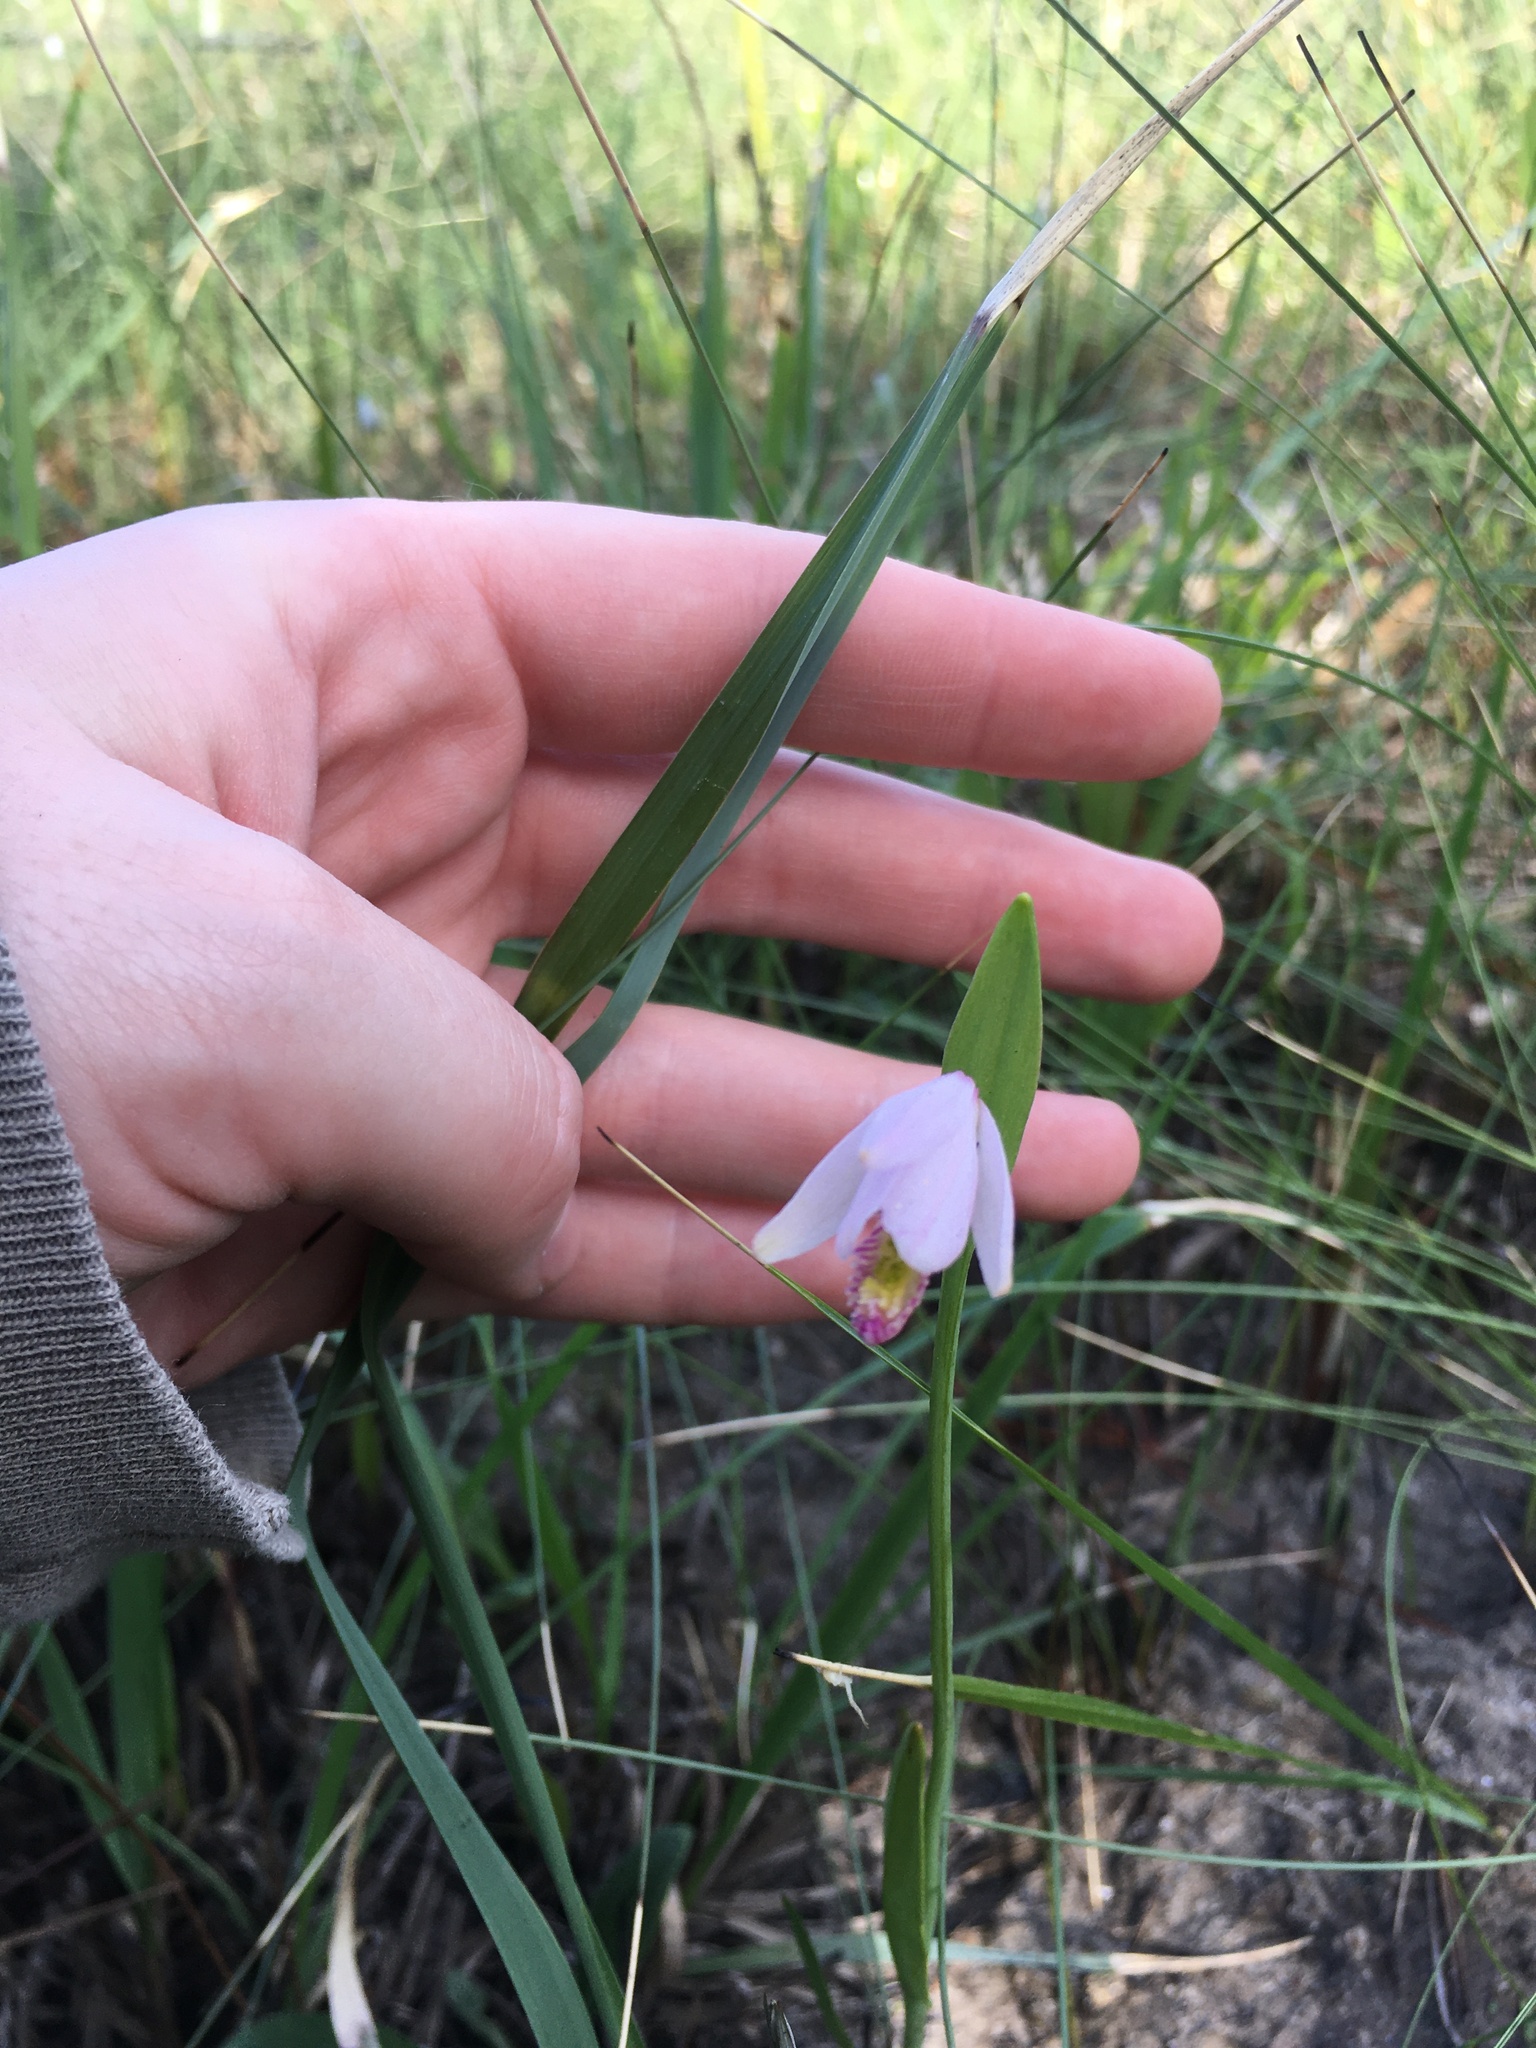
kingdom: Plantae
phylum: Tracheophyta
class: Liliopsida
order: Asparagales
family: Orchidaceae
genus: Pogonia
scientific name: Pogonia ophioglossoides
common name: Rose pogonia
